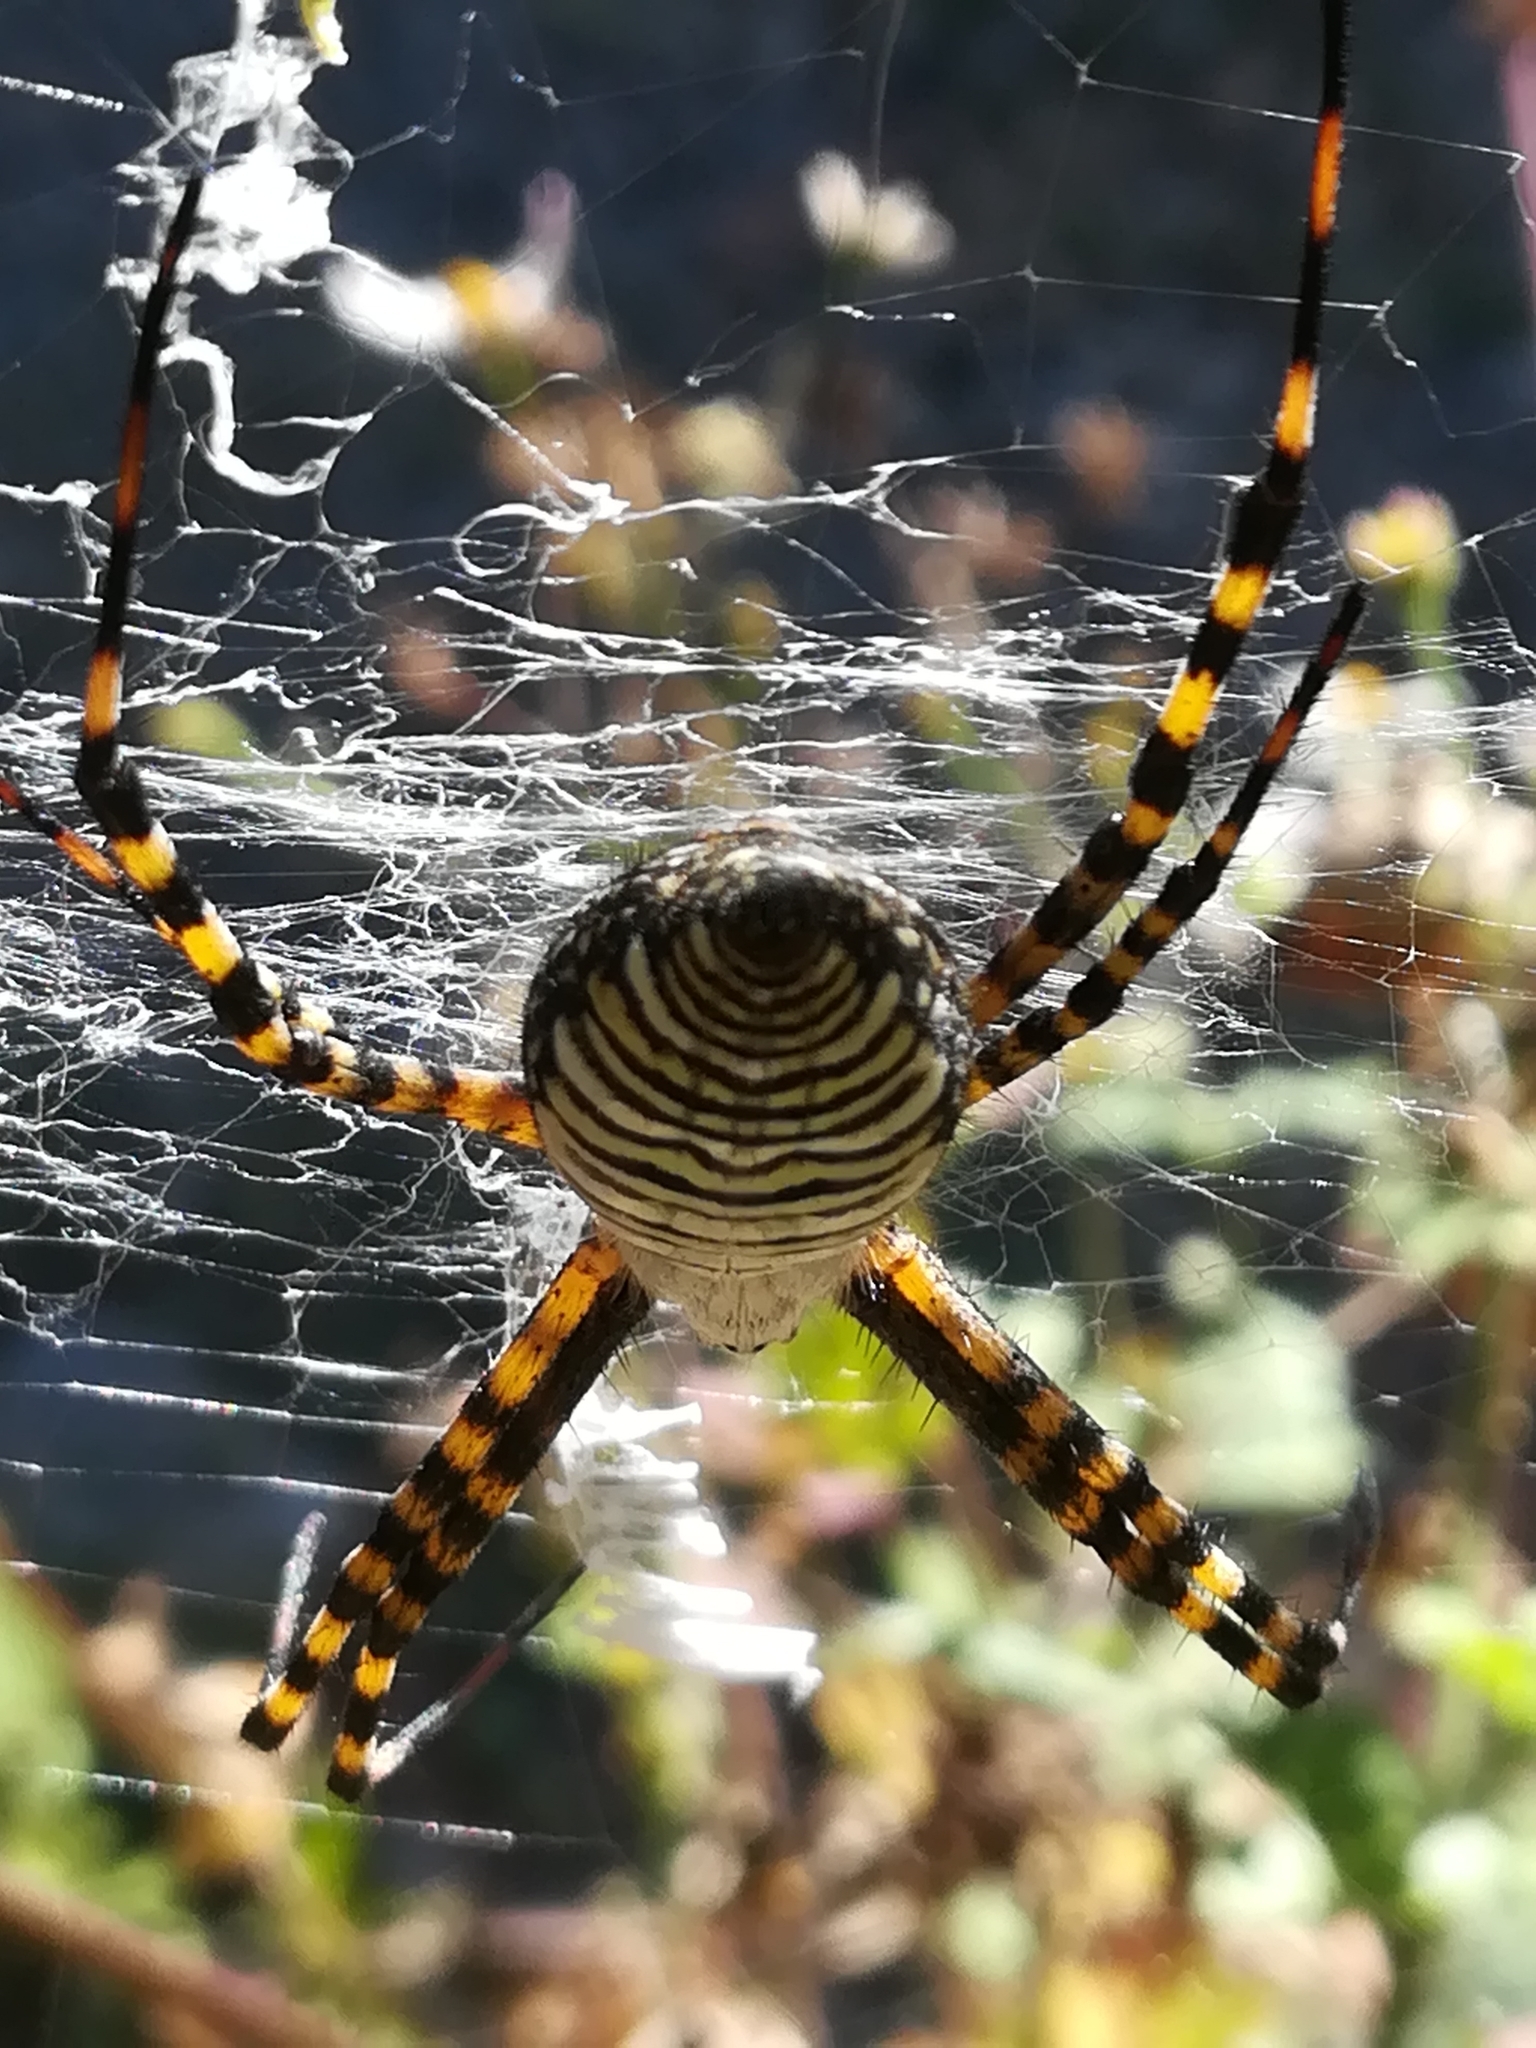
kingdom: Animalia
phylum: Arthropoda
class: Arachnida
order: Araneae
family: Araneidae
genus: Argiope
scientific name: Argiope trifasciata
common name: Banded garden spider
